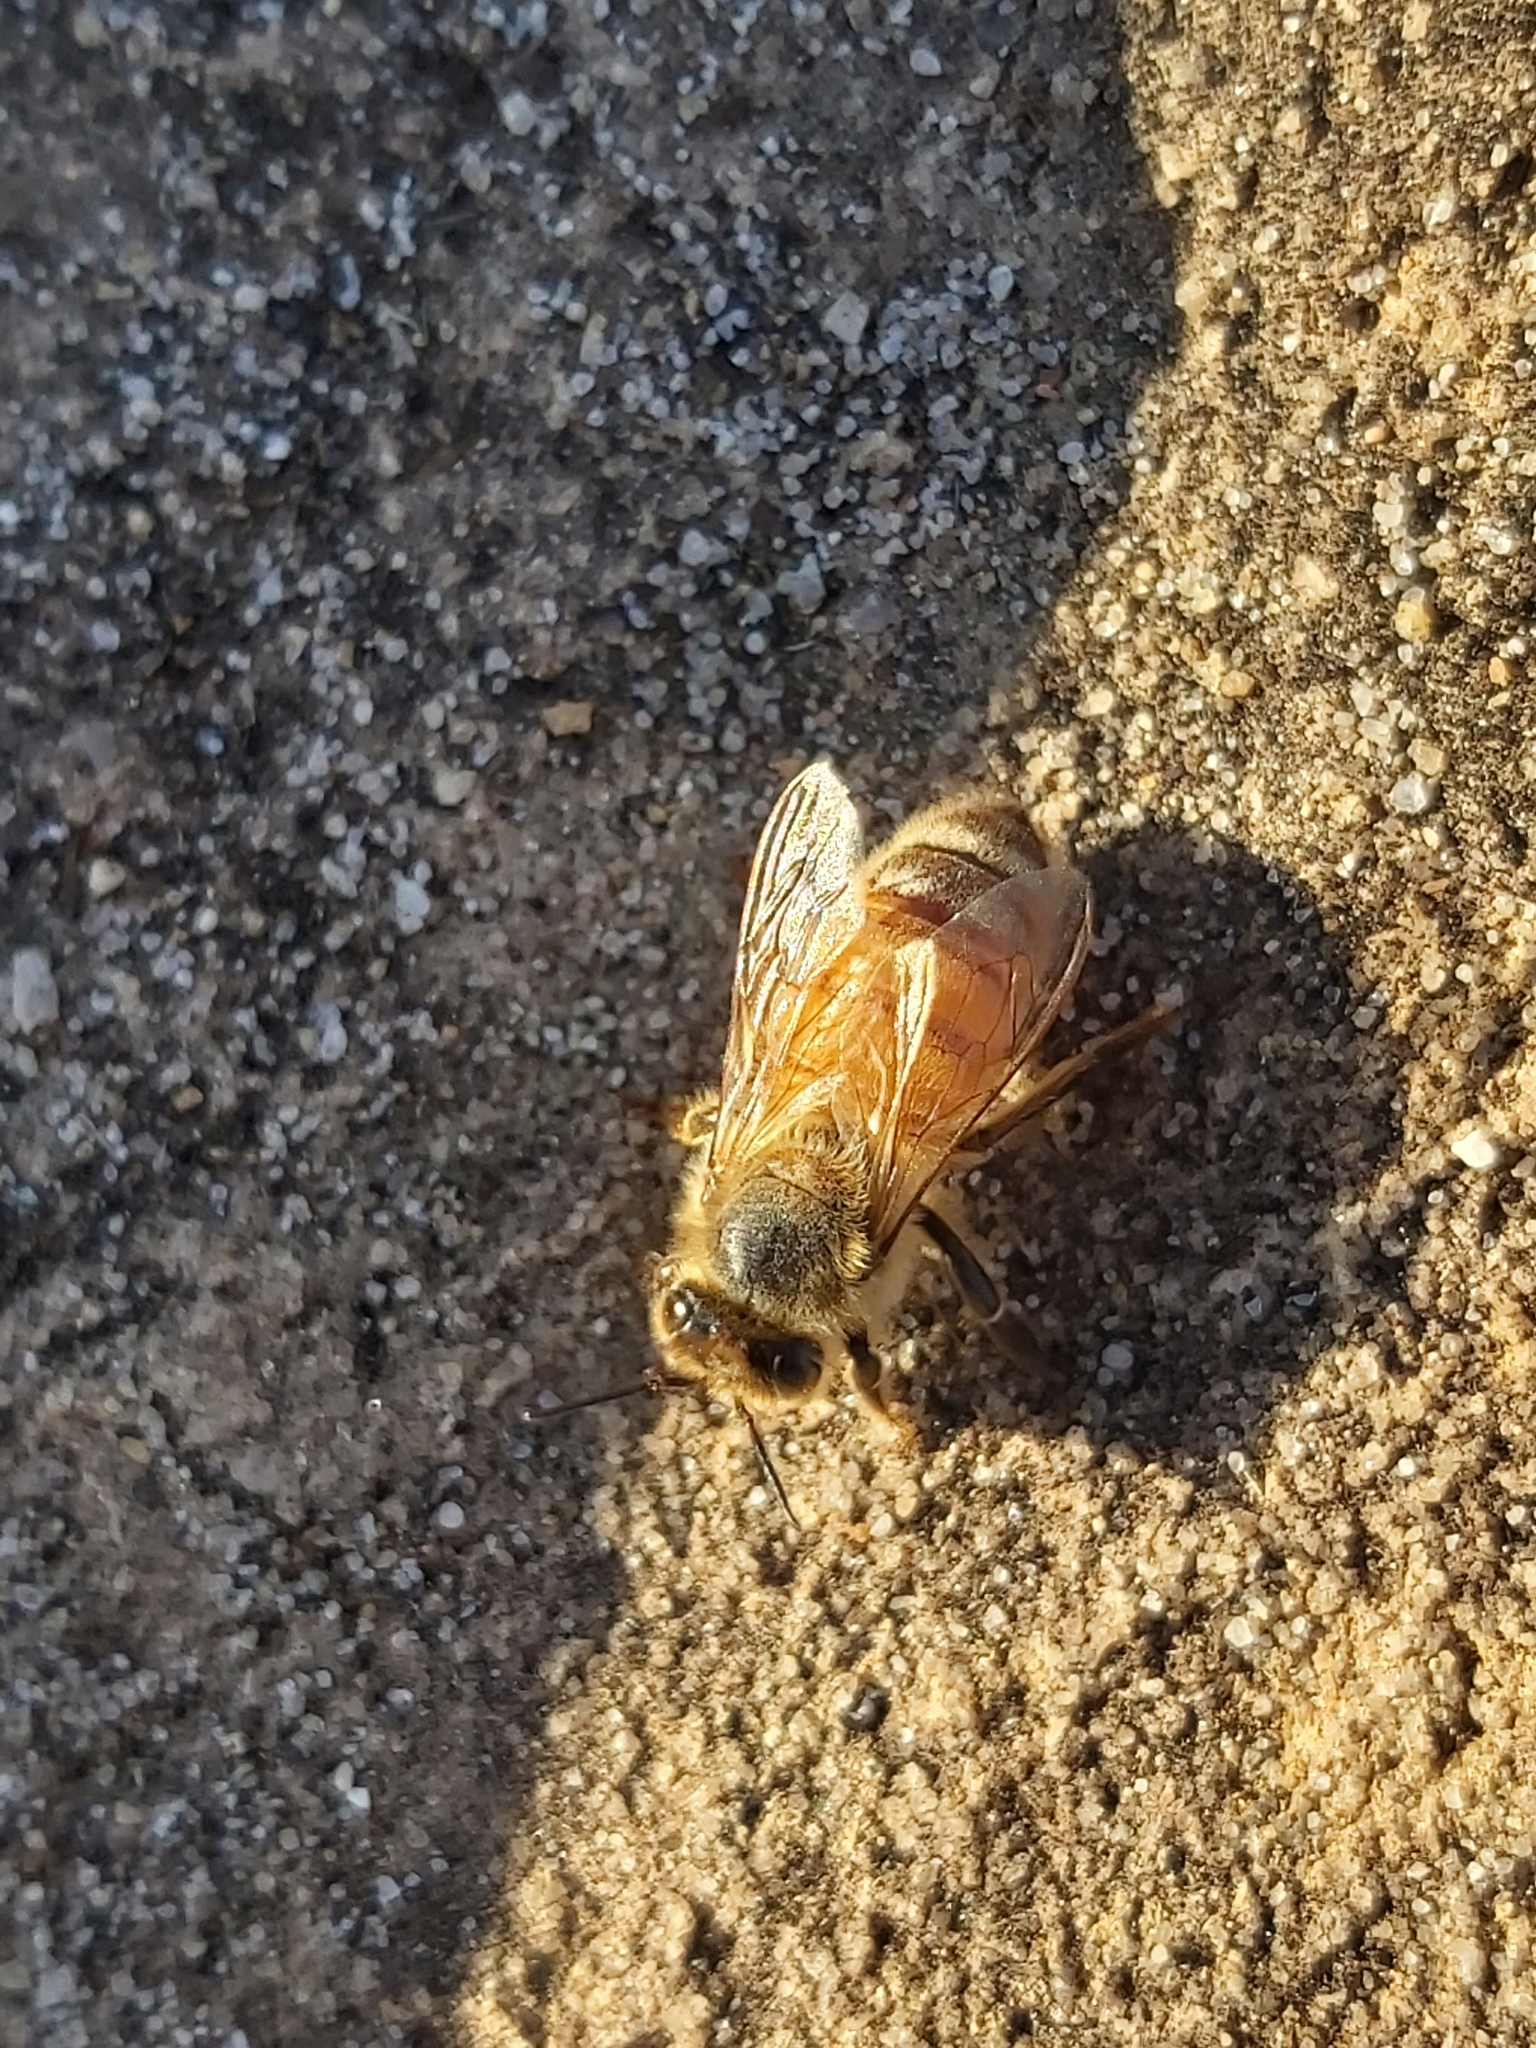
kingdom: Animalia
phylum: Arthropoda
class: Insecta
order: Hymenoptera
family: Apidae
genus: Apis
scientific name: Apis mellifera
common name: Honey bee
